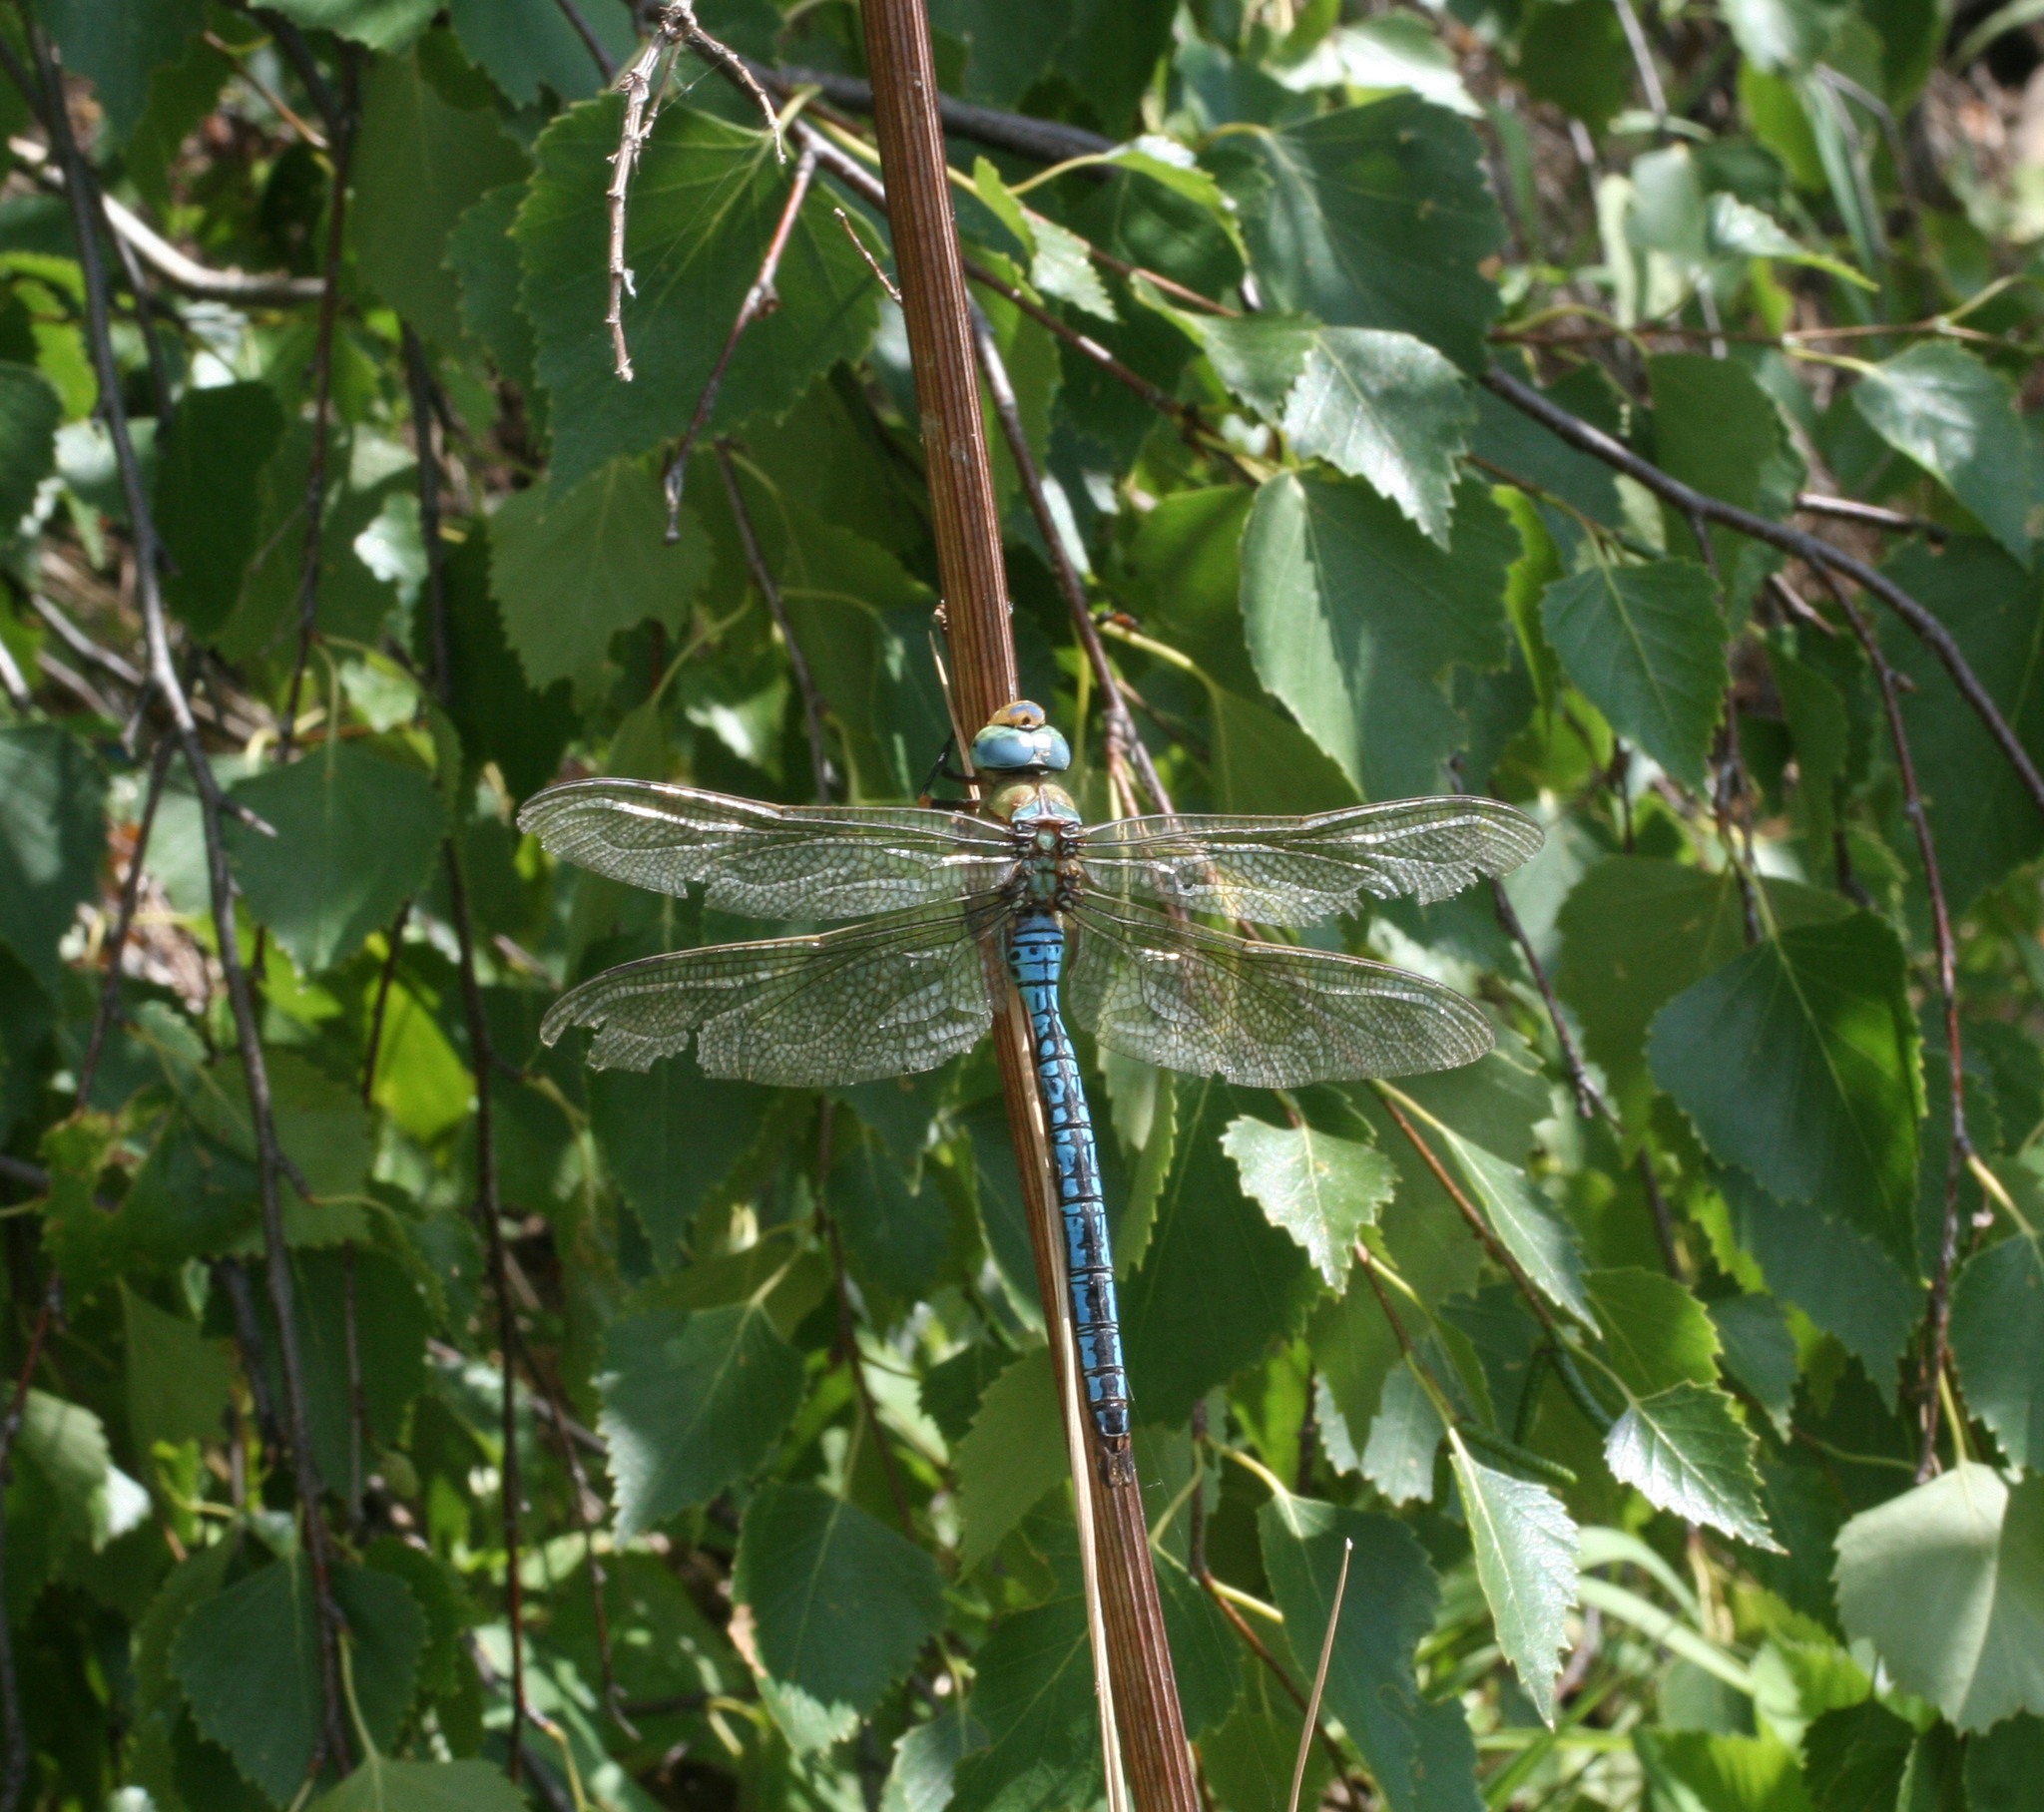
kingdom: Animalia
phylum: Arthropoda
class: Insecta
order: Odonata
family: Aeshnidae
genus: Anax
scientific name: Anax imperator
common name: Emperor dragonfly
